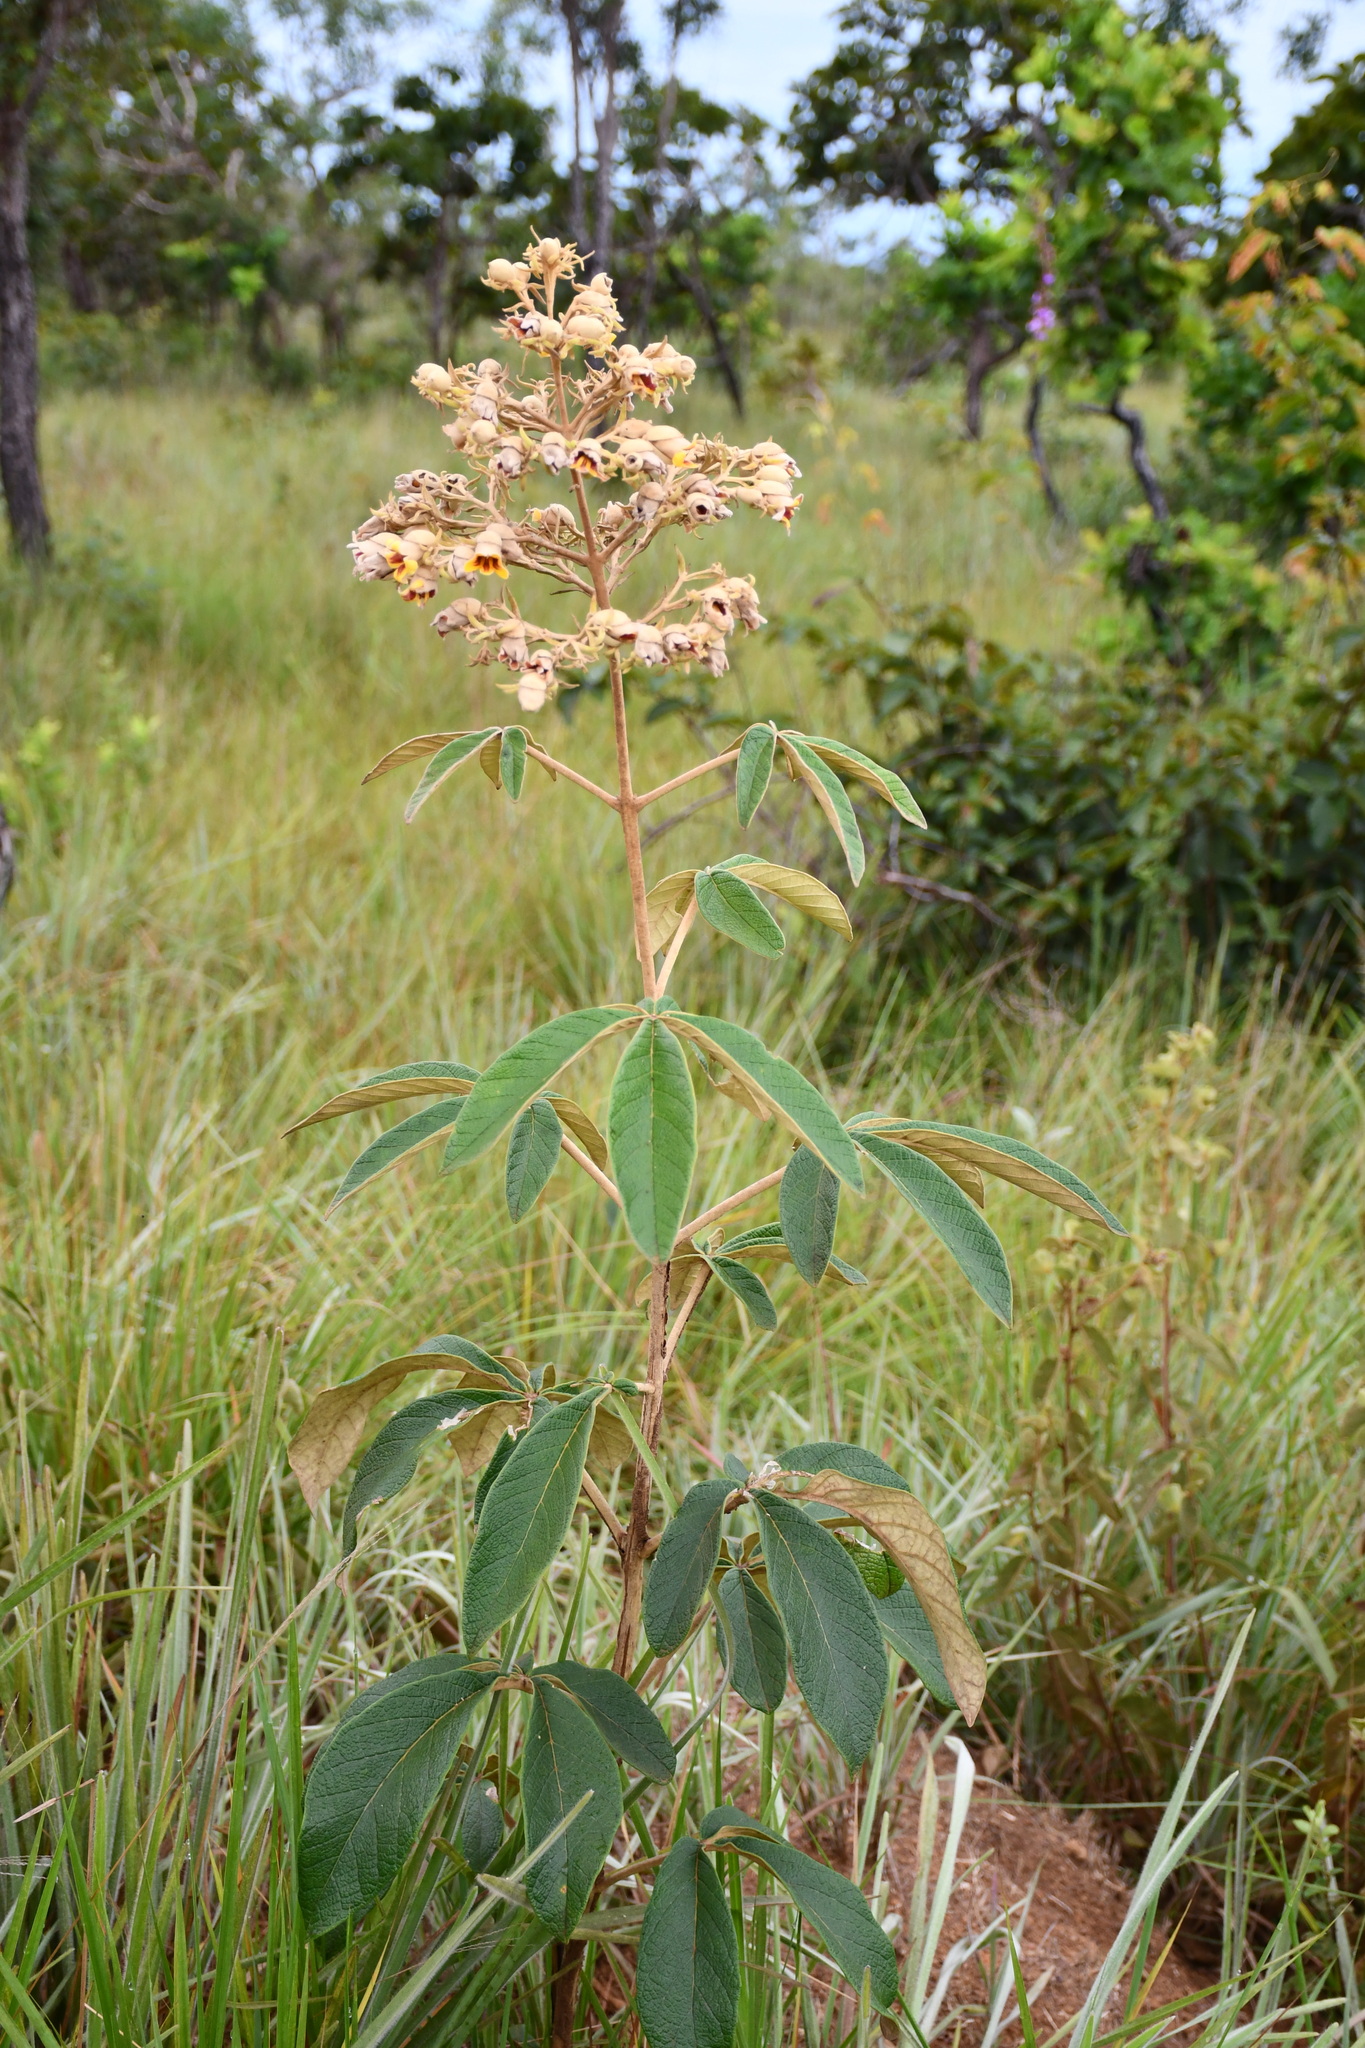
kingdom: Plantae
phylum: Tracheophyta
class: Magnoliopsida
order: Lamiales
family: Bignoniaceae
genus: Zeyheria
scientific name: Zeyheria montana
